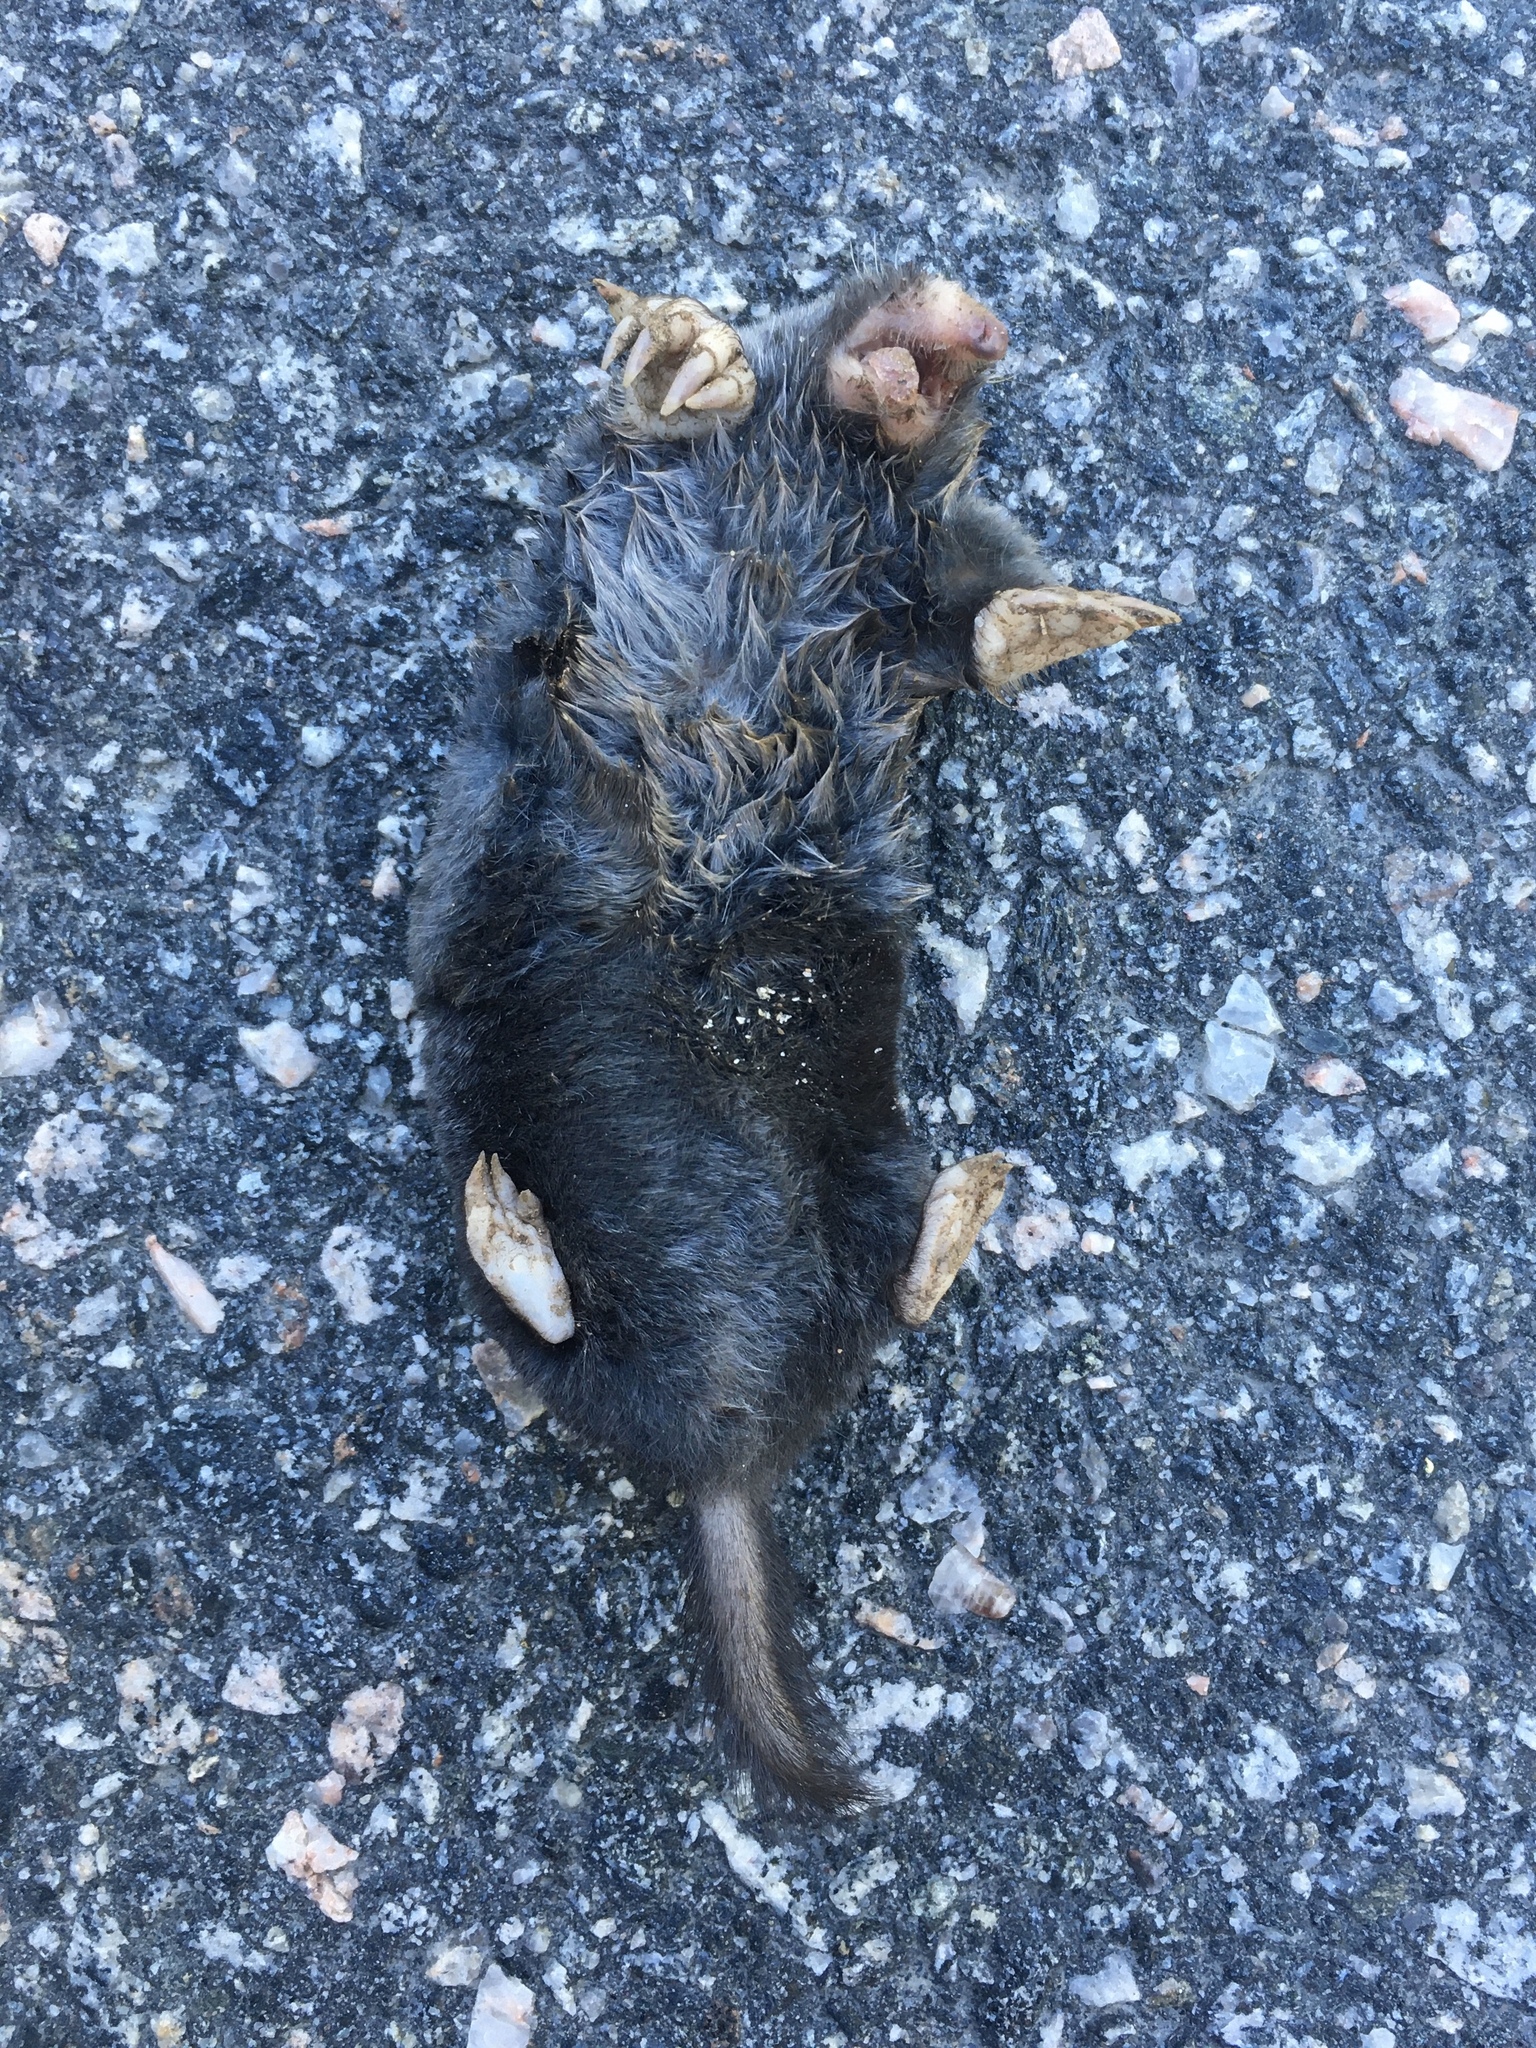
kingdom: Animalia
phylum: Chordata
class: Mammalia
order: Soricomorpha
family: Talpidae
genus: Parascalops
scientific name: Parascalops breweri
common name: Hairy-tailed mole
